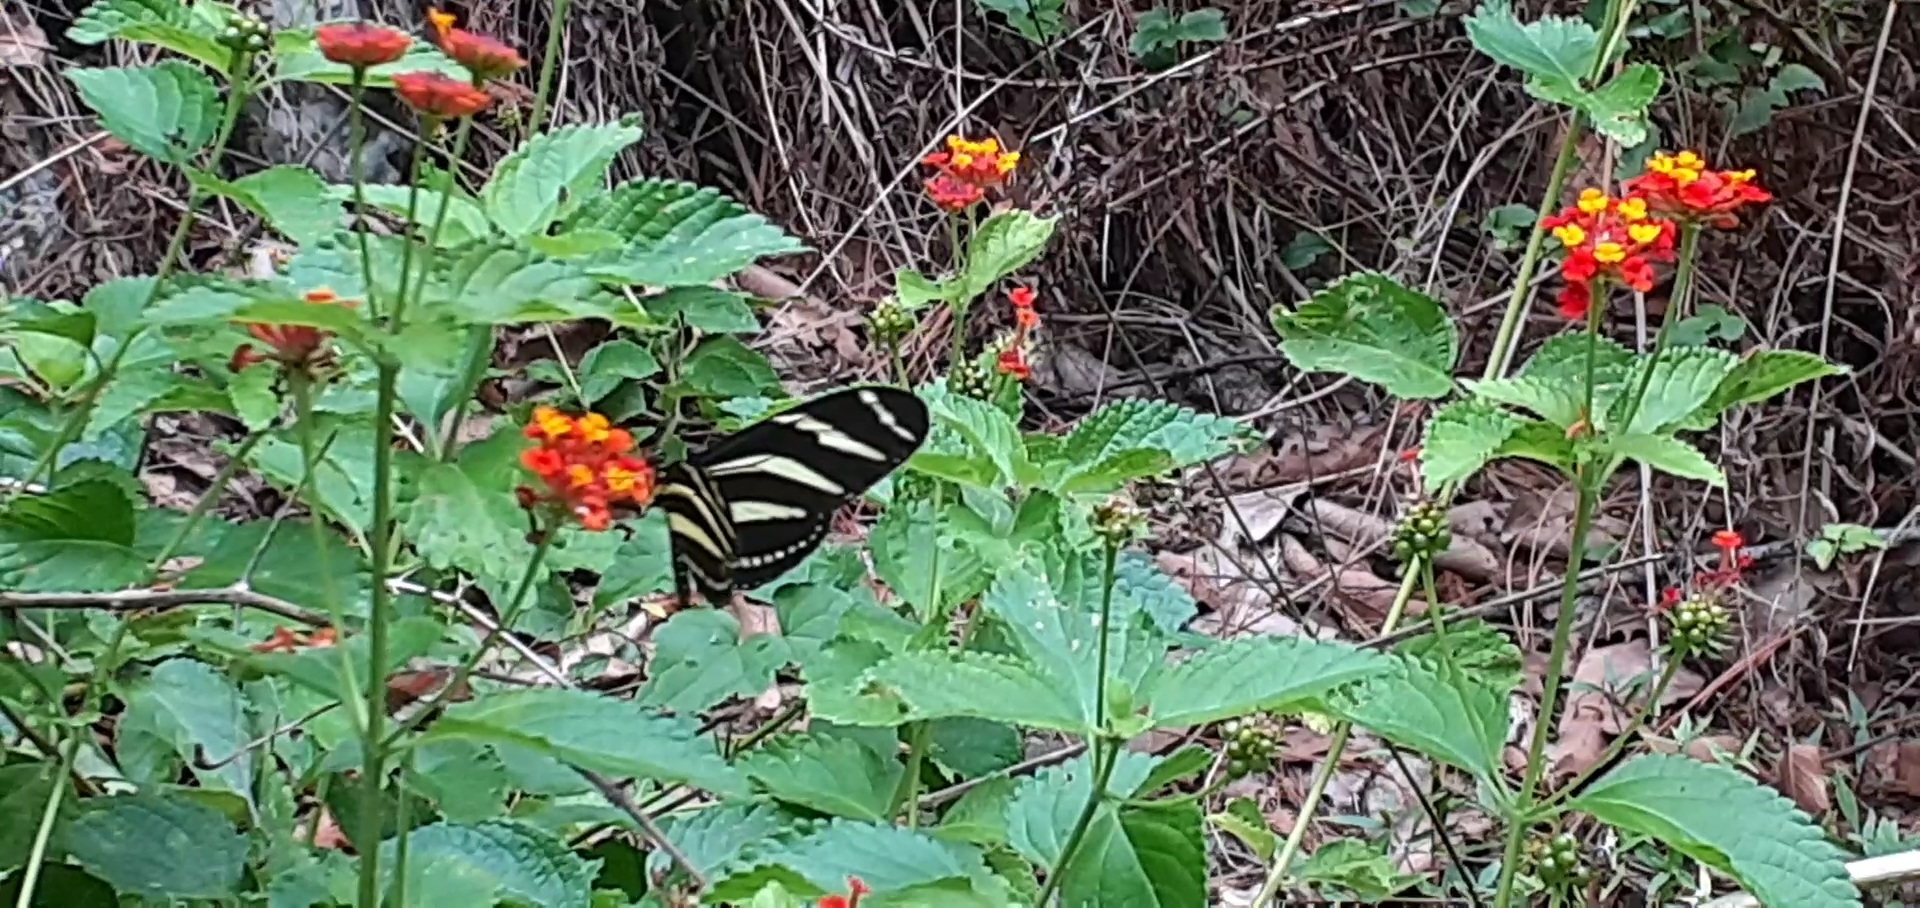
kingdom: Animalia
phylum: Arthropoda
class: Insecta
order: Lepidoptera
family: Nymphalidae
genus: Heliconius
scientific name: Heliconius charithonia
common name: Zebra long wing
